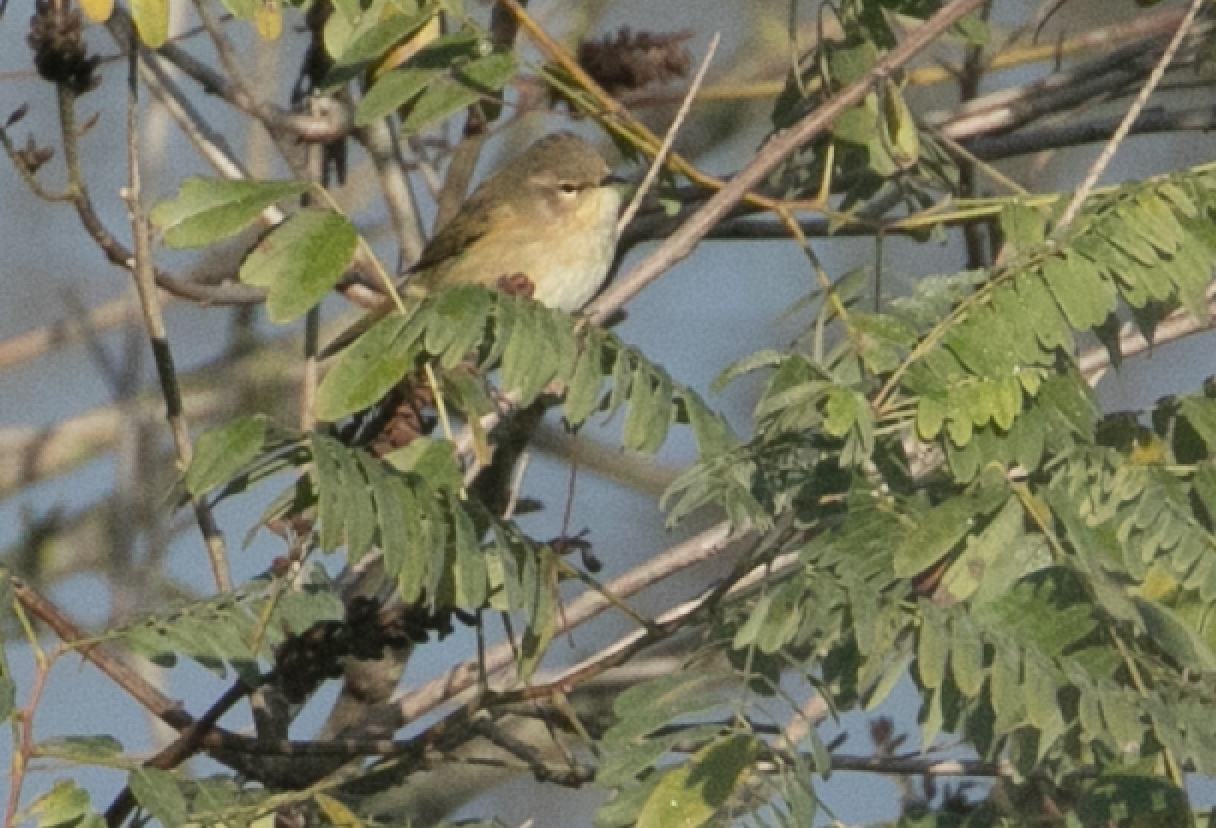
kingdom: Animalia
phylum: Chordata
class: Aves
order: Passeriformes
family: Phylloscopidae
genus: Phylloscopus
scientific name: Phylloscopus collybita
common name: Common chiffchaff
